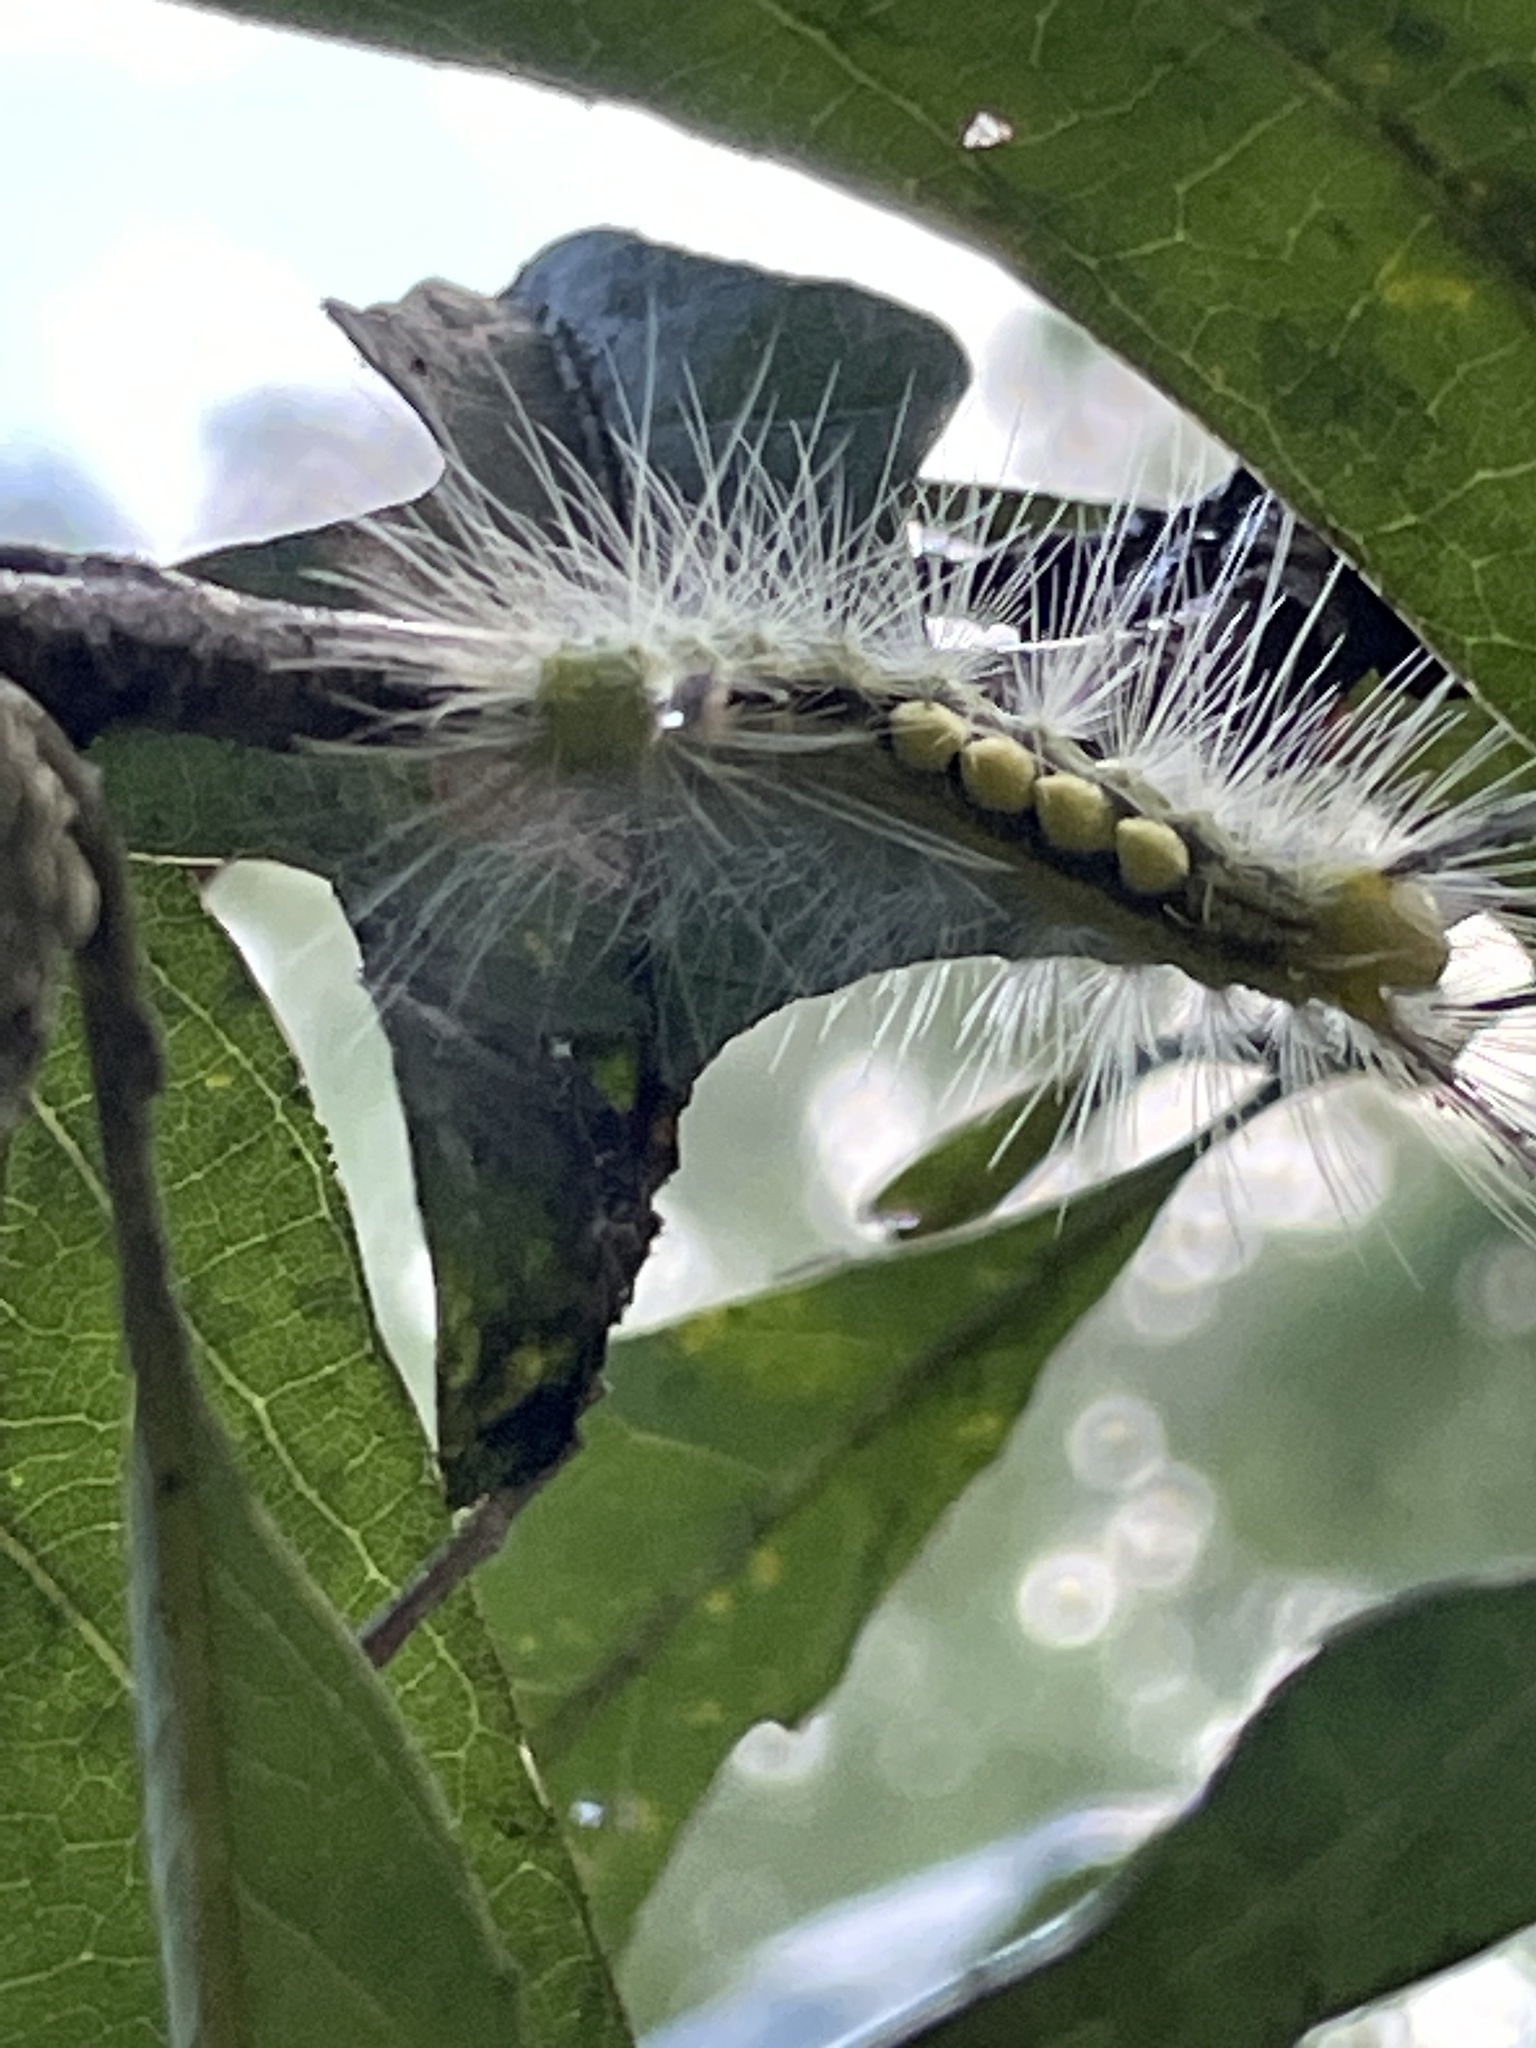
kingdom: Animalia
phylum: Arthropoda
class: Insecta
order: Lepidoptera
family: Erebidae
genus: Orgyia
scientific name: Orgyia definita
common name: Definite tussock moth
